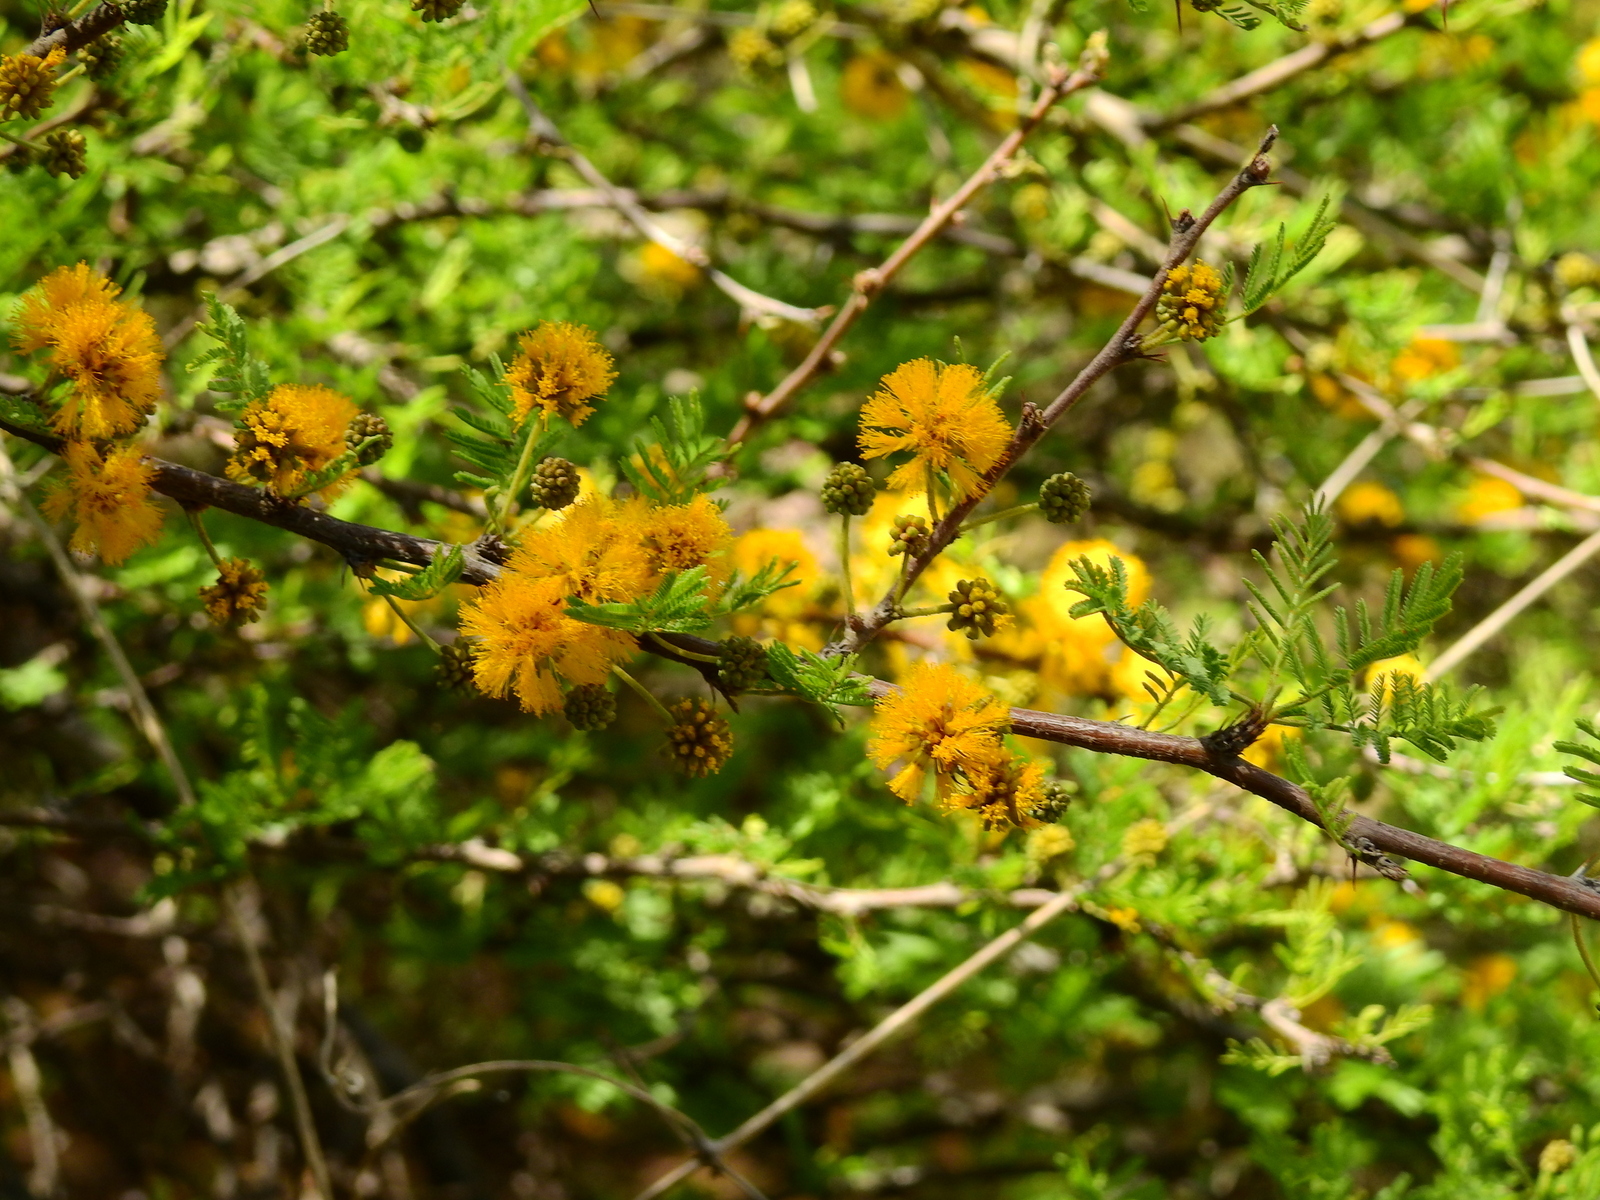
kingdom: Plantae
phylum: Tracheophyta
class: Magnoliopsida
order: Fabales
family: Fabaceae
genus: Vachellia
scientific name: Vachellia caven
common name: Roman cassie
